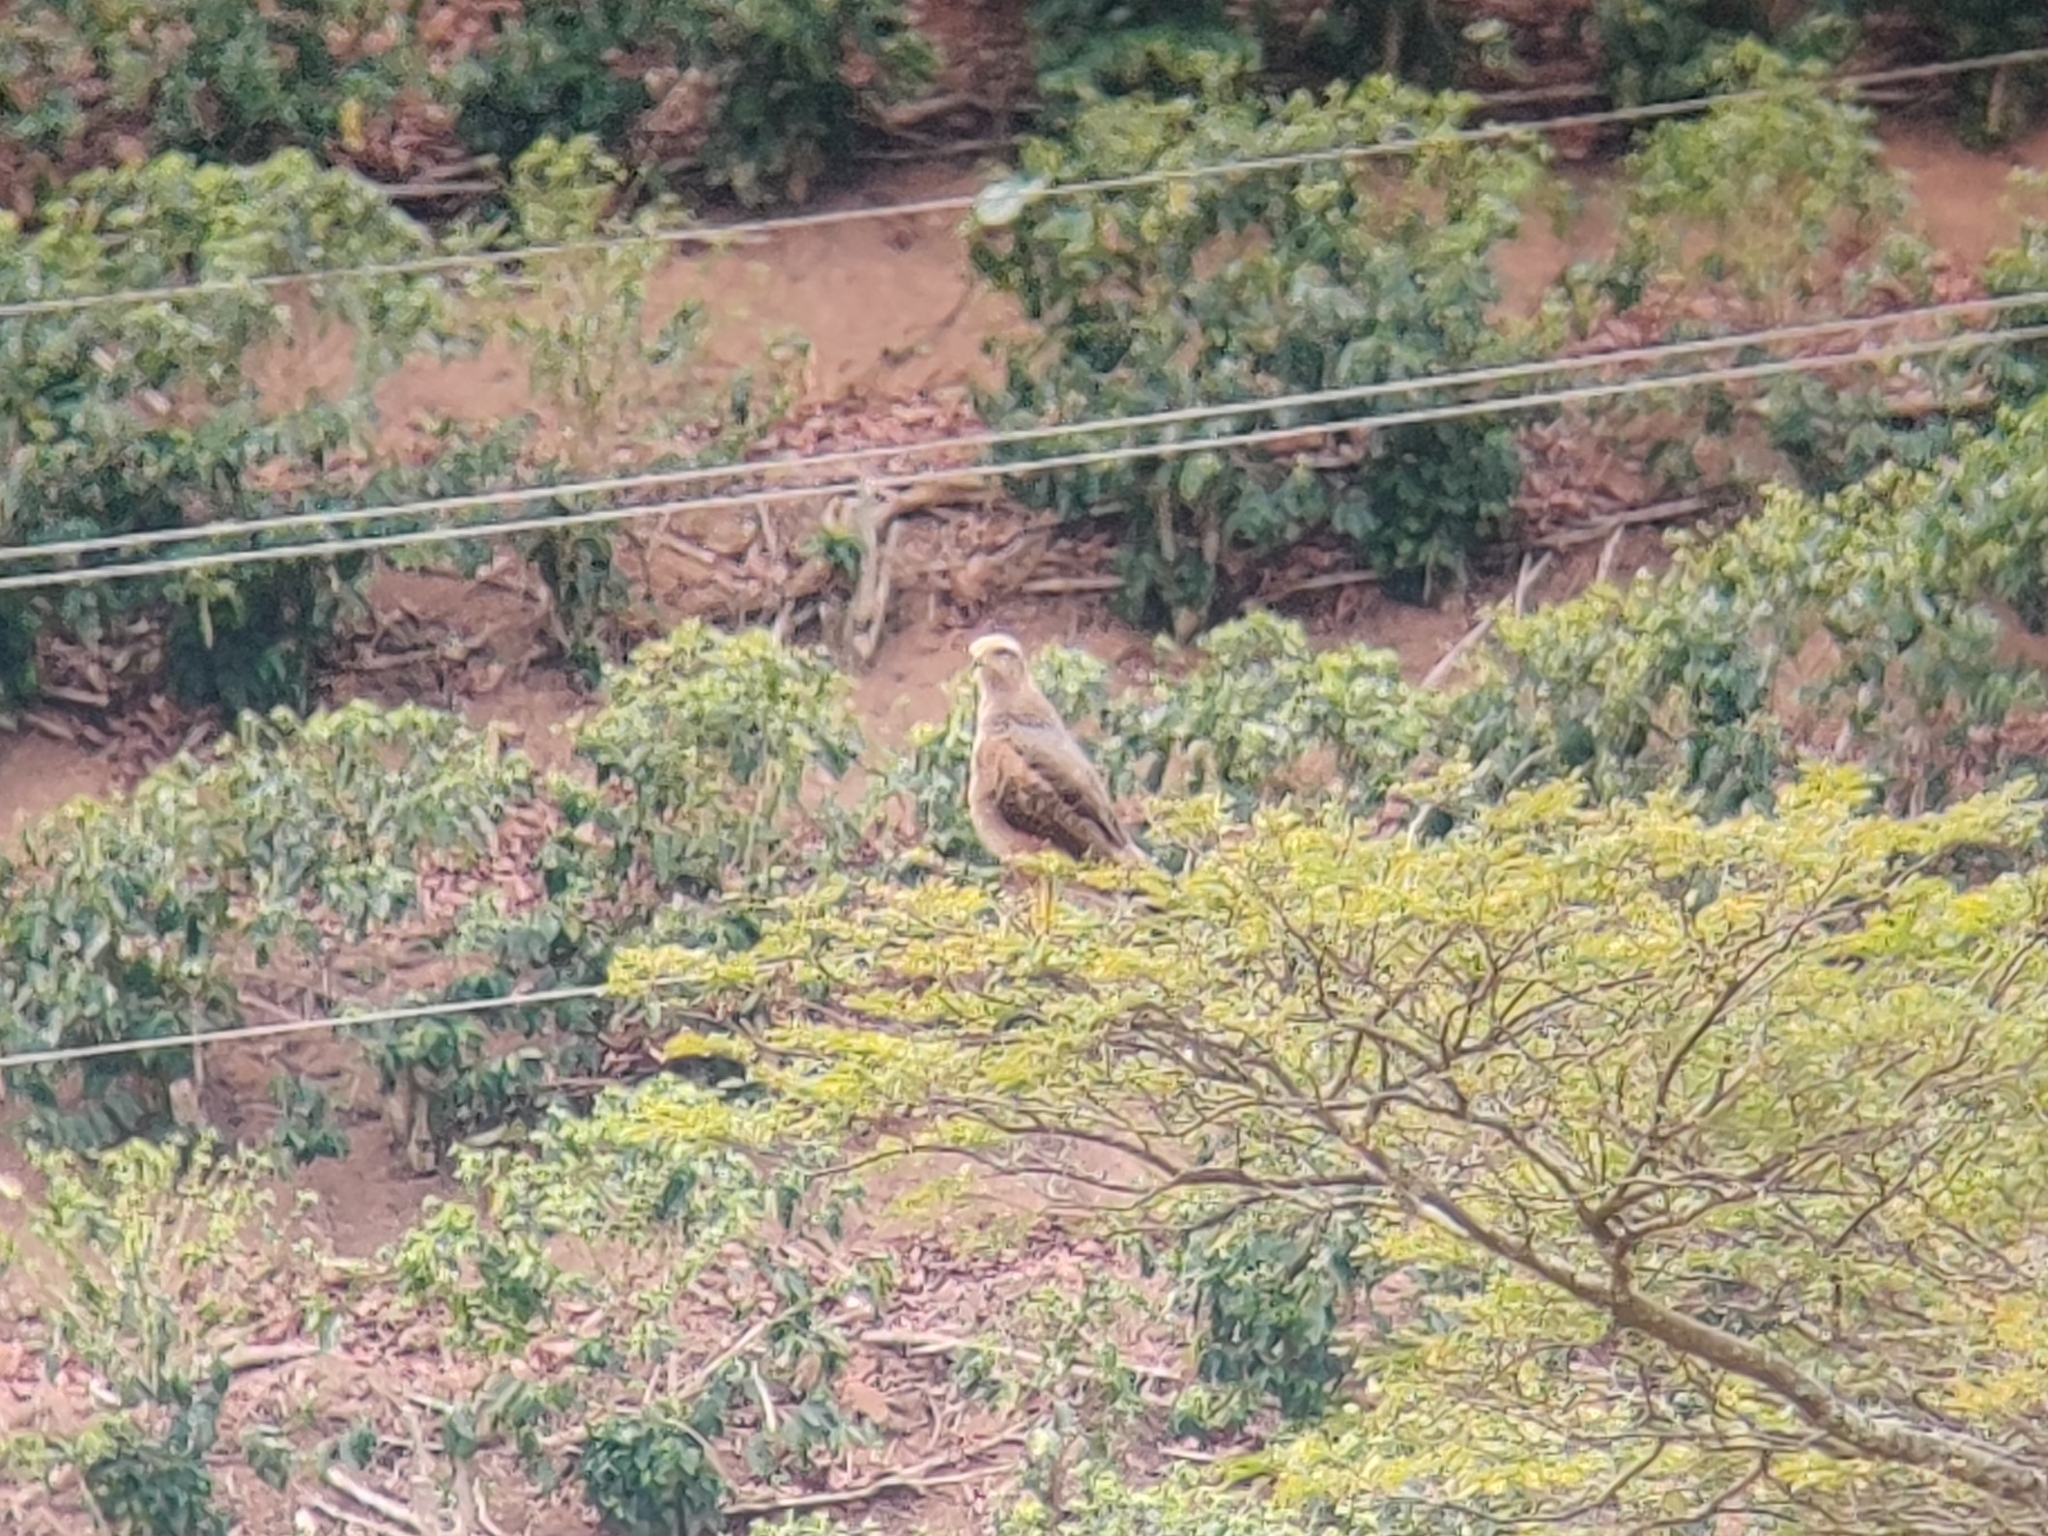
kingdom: Animalia
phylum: Chordata
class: Aves
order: Accipitriformes
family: Accipitridae
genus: Buteogallus
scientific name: Buteogallus meridionalis
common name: Savanna hawk
